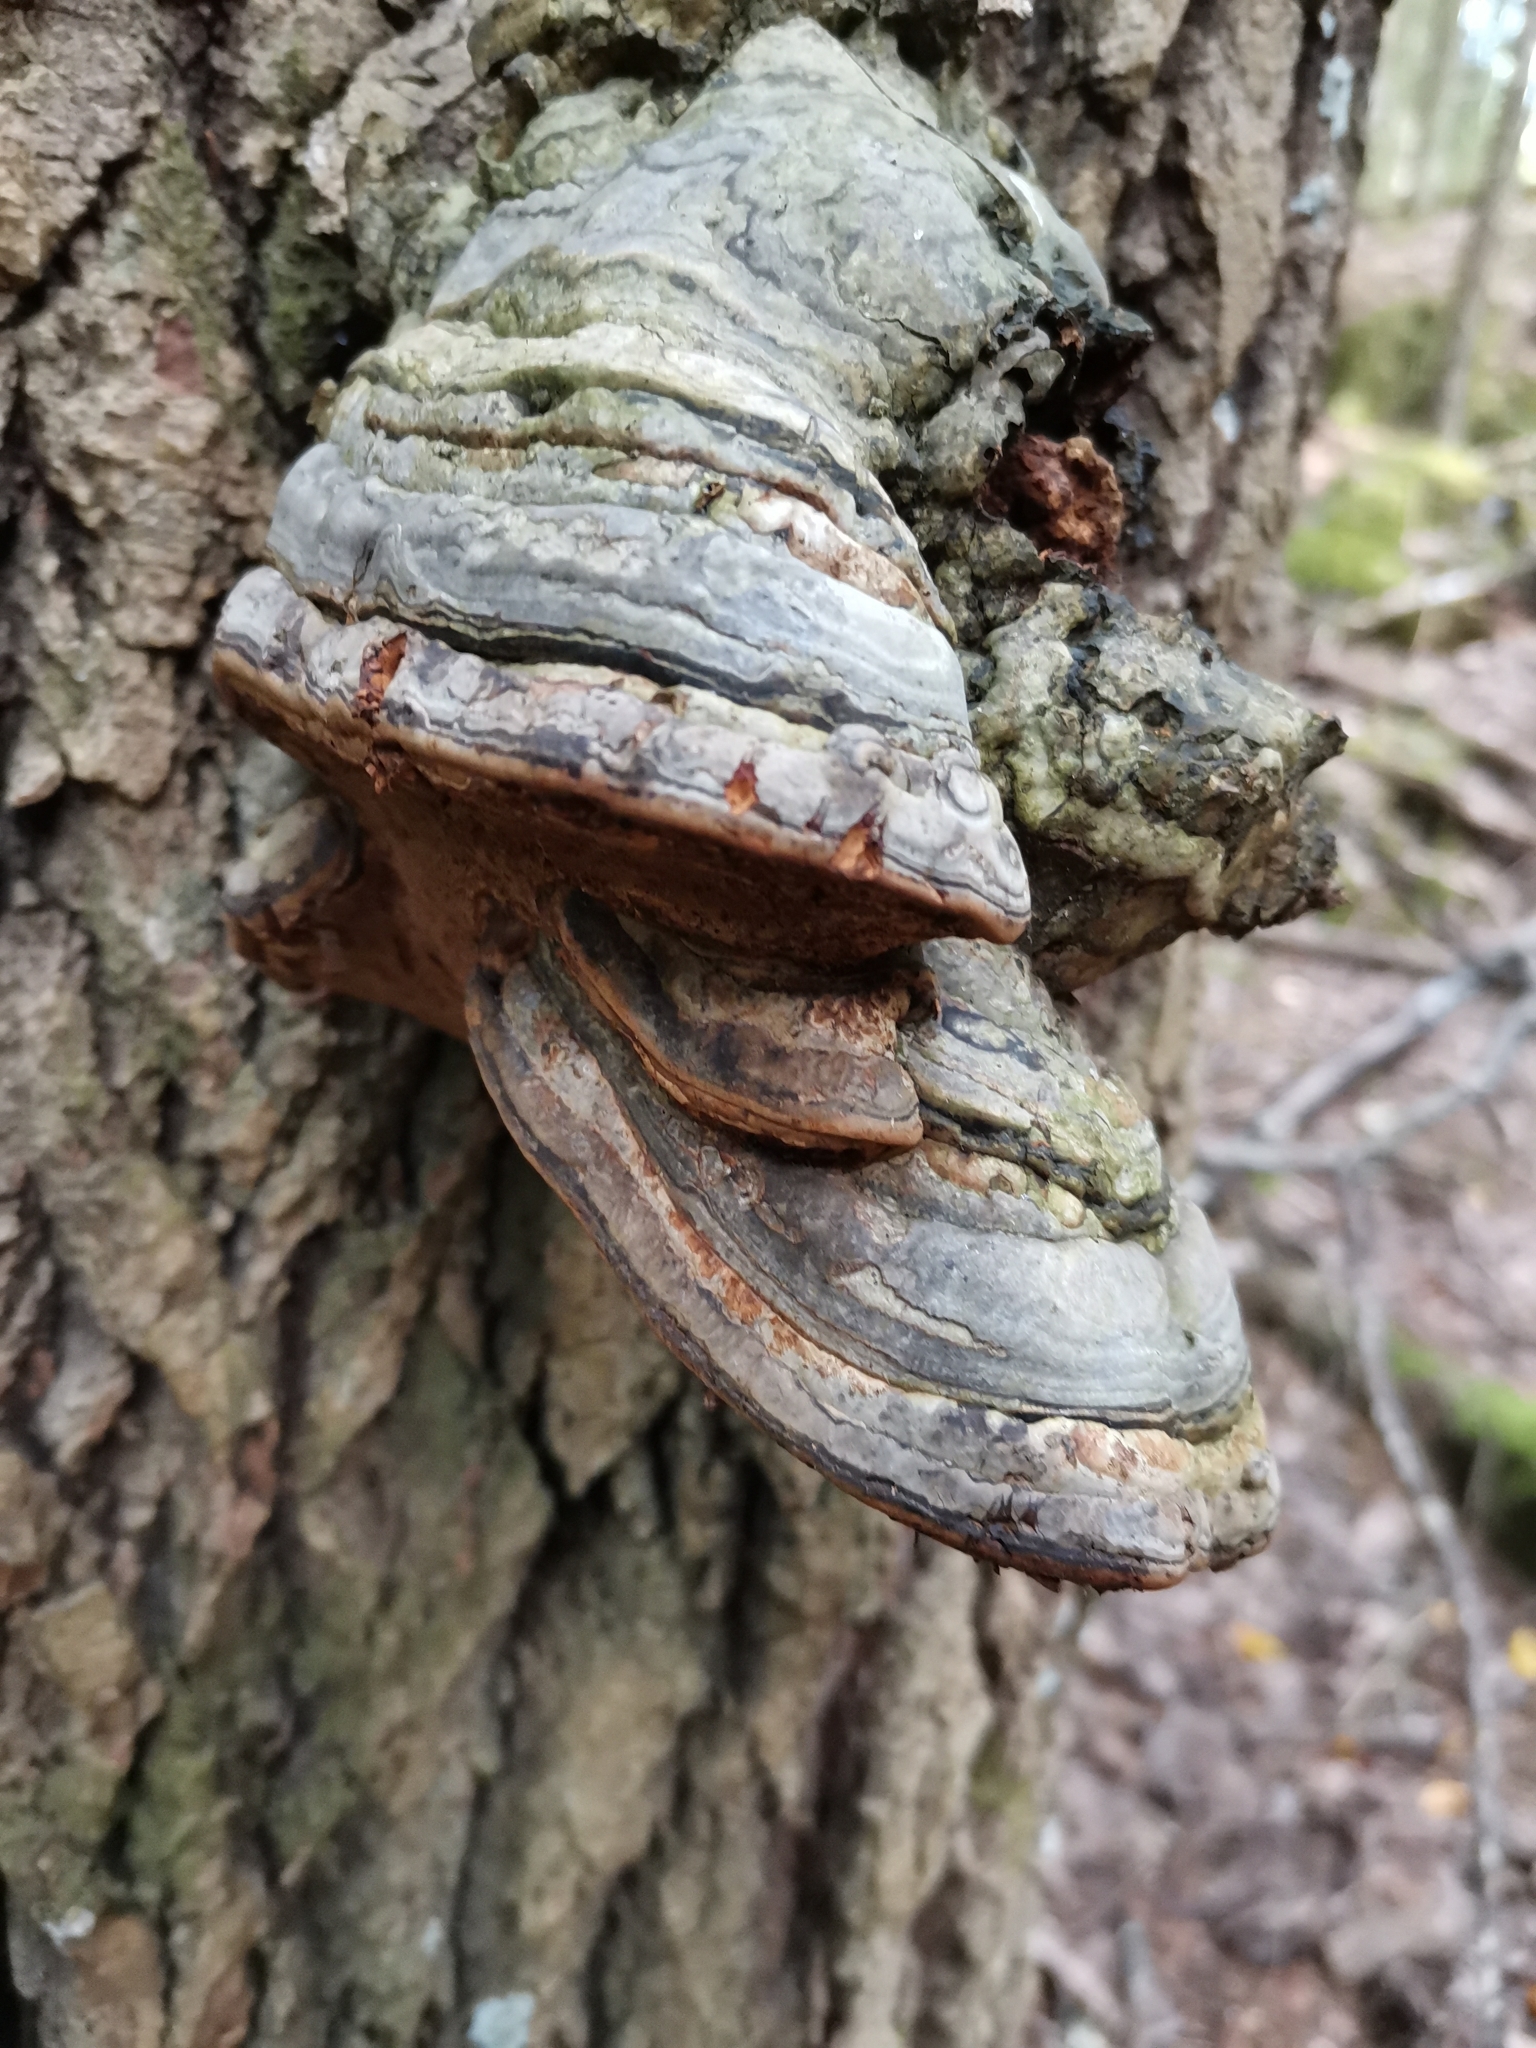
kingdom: Fungi
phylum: Basidiomycota
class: Agaricomycetes
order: Polyporales
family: Polyporaceae
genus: Fomes
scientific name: Fomes fomentarius
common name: Hoof fungus
